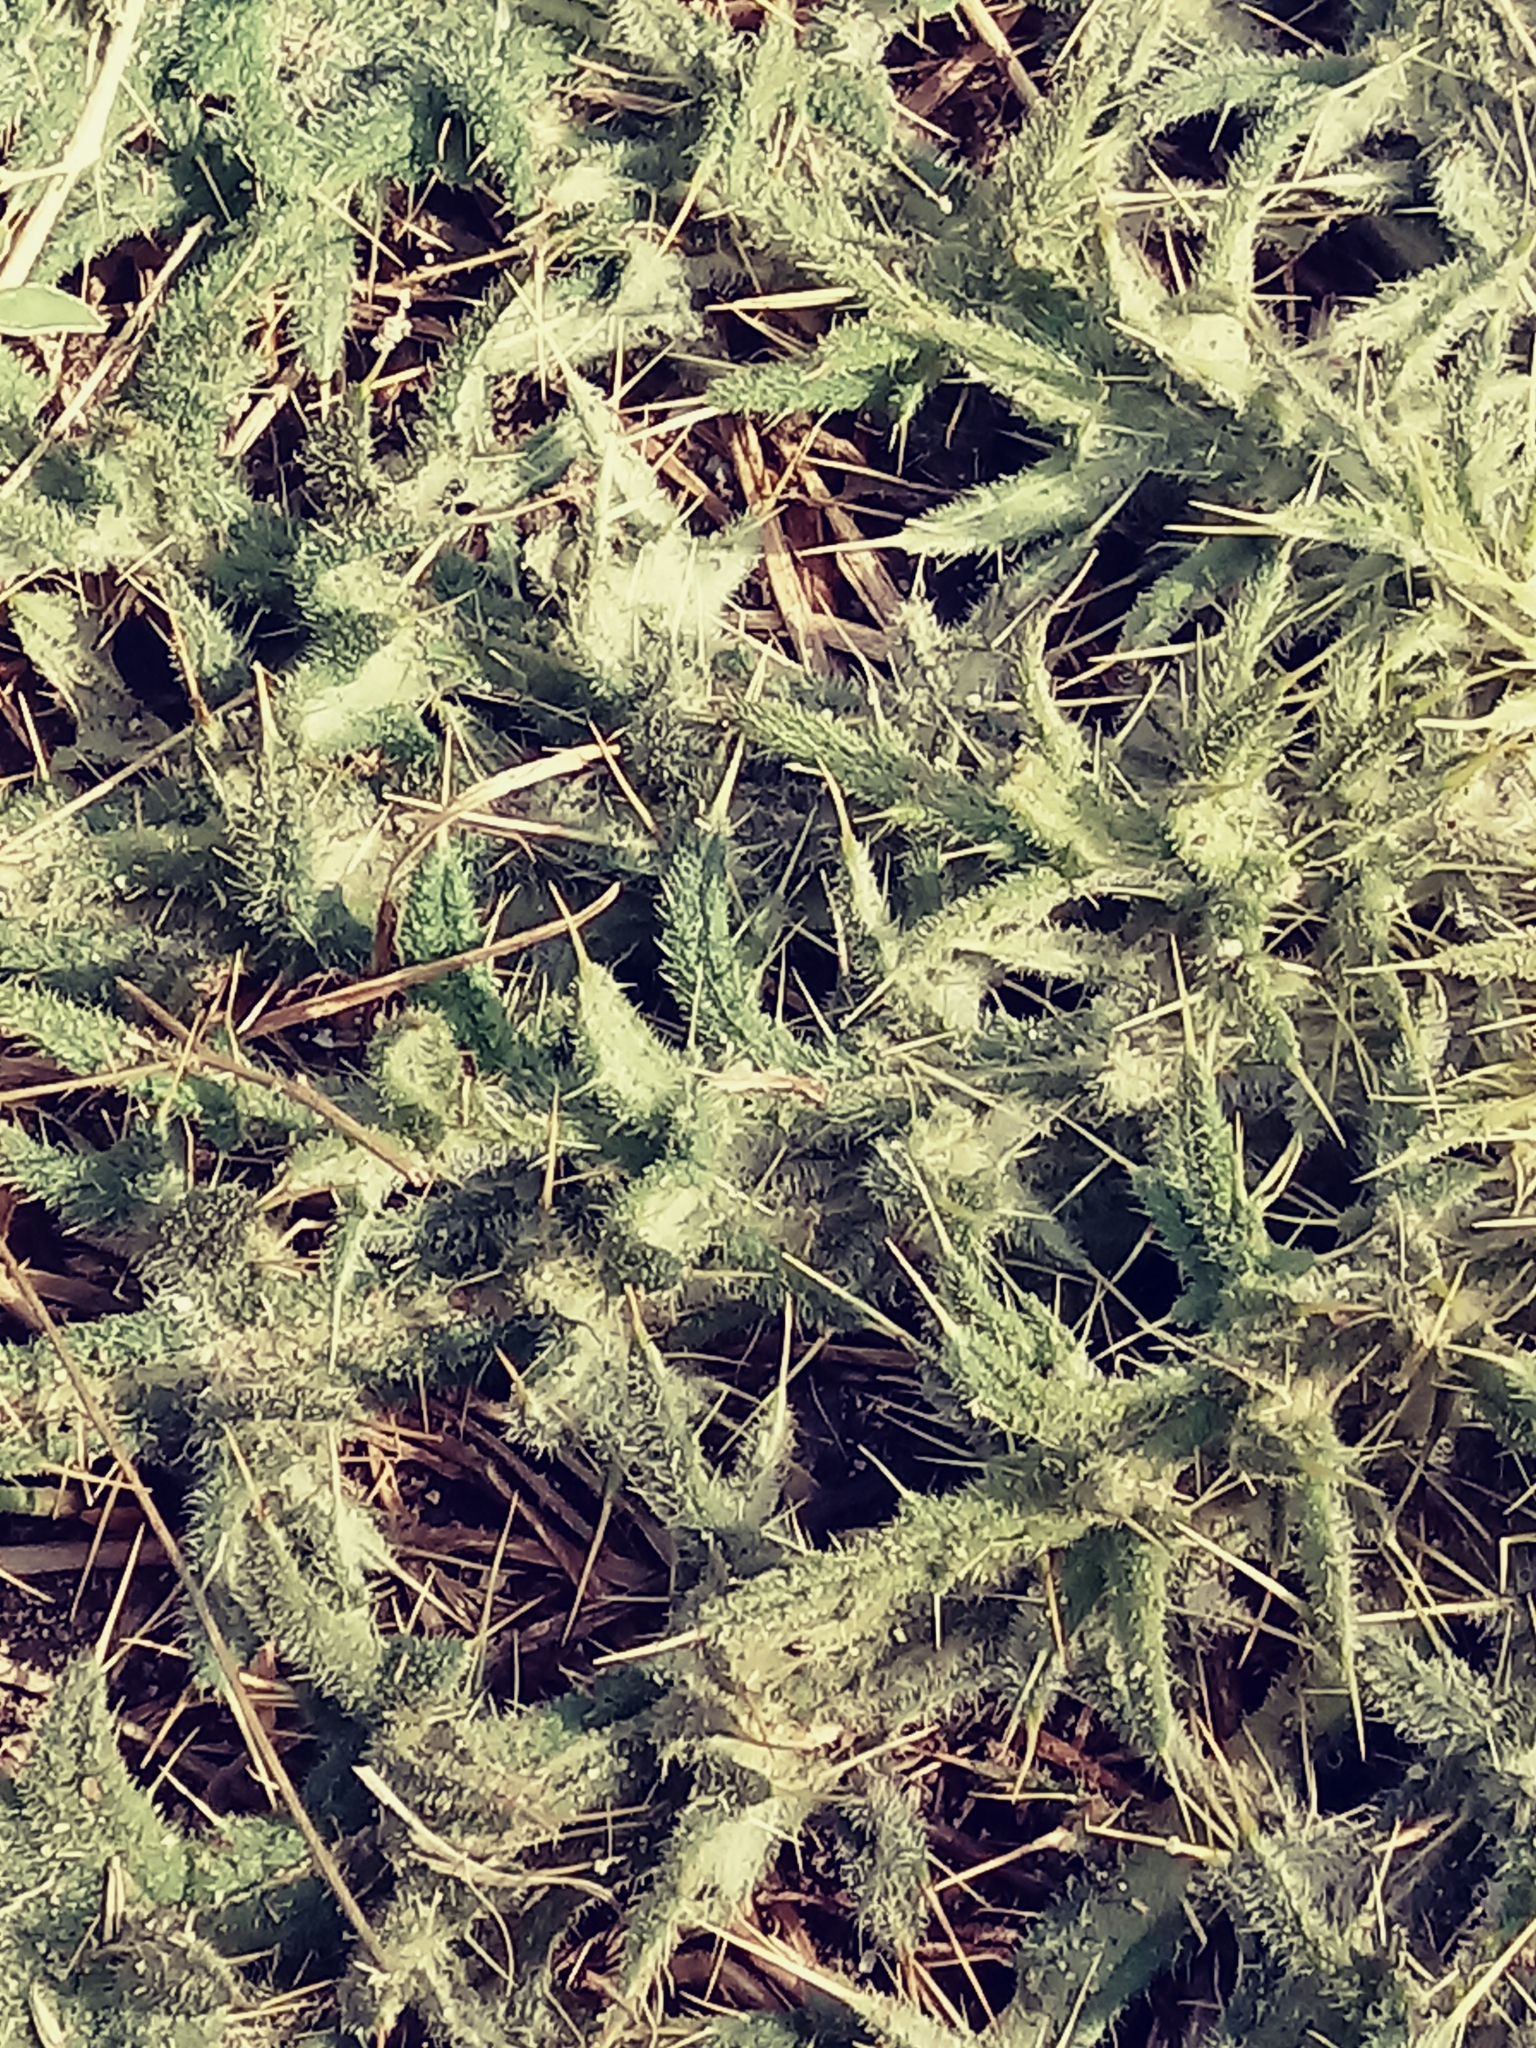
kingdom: Plantae
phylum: Tracheophyta
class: Magnoliopsida
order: Asterales
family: Asteraceae
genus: Cirsium
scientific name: Cirsium vulgare
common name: Bull thistle
